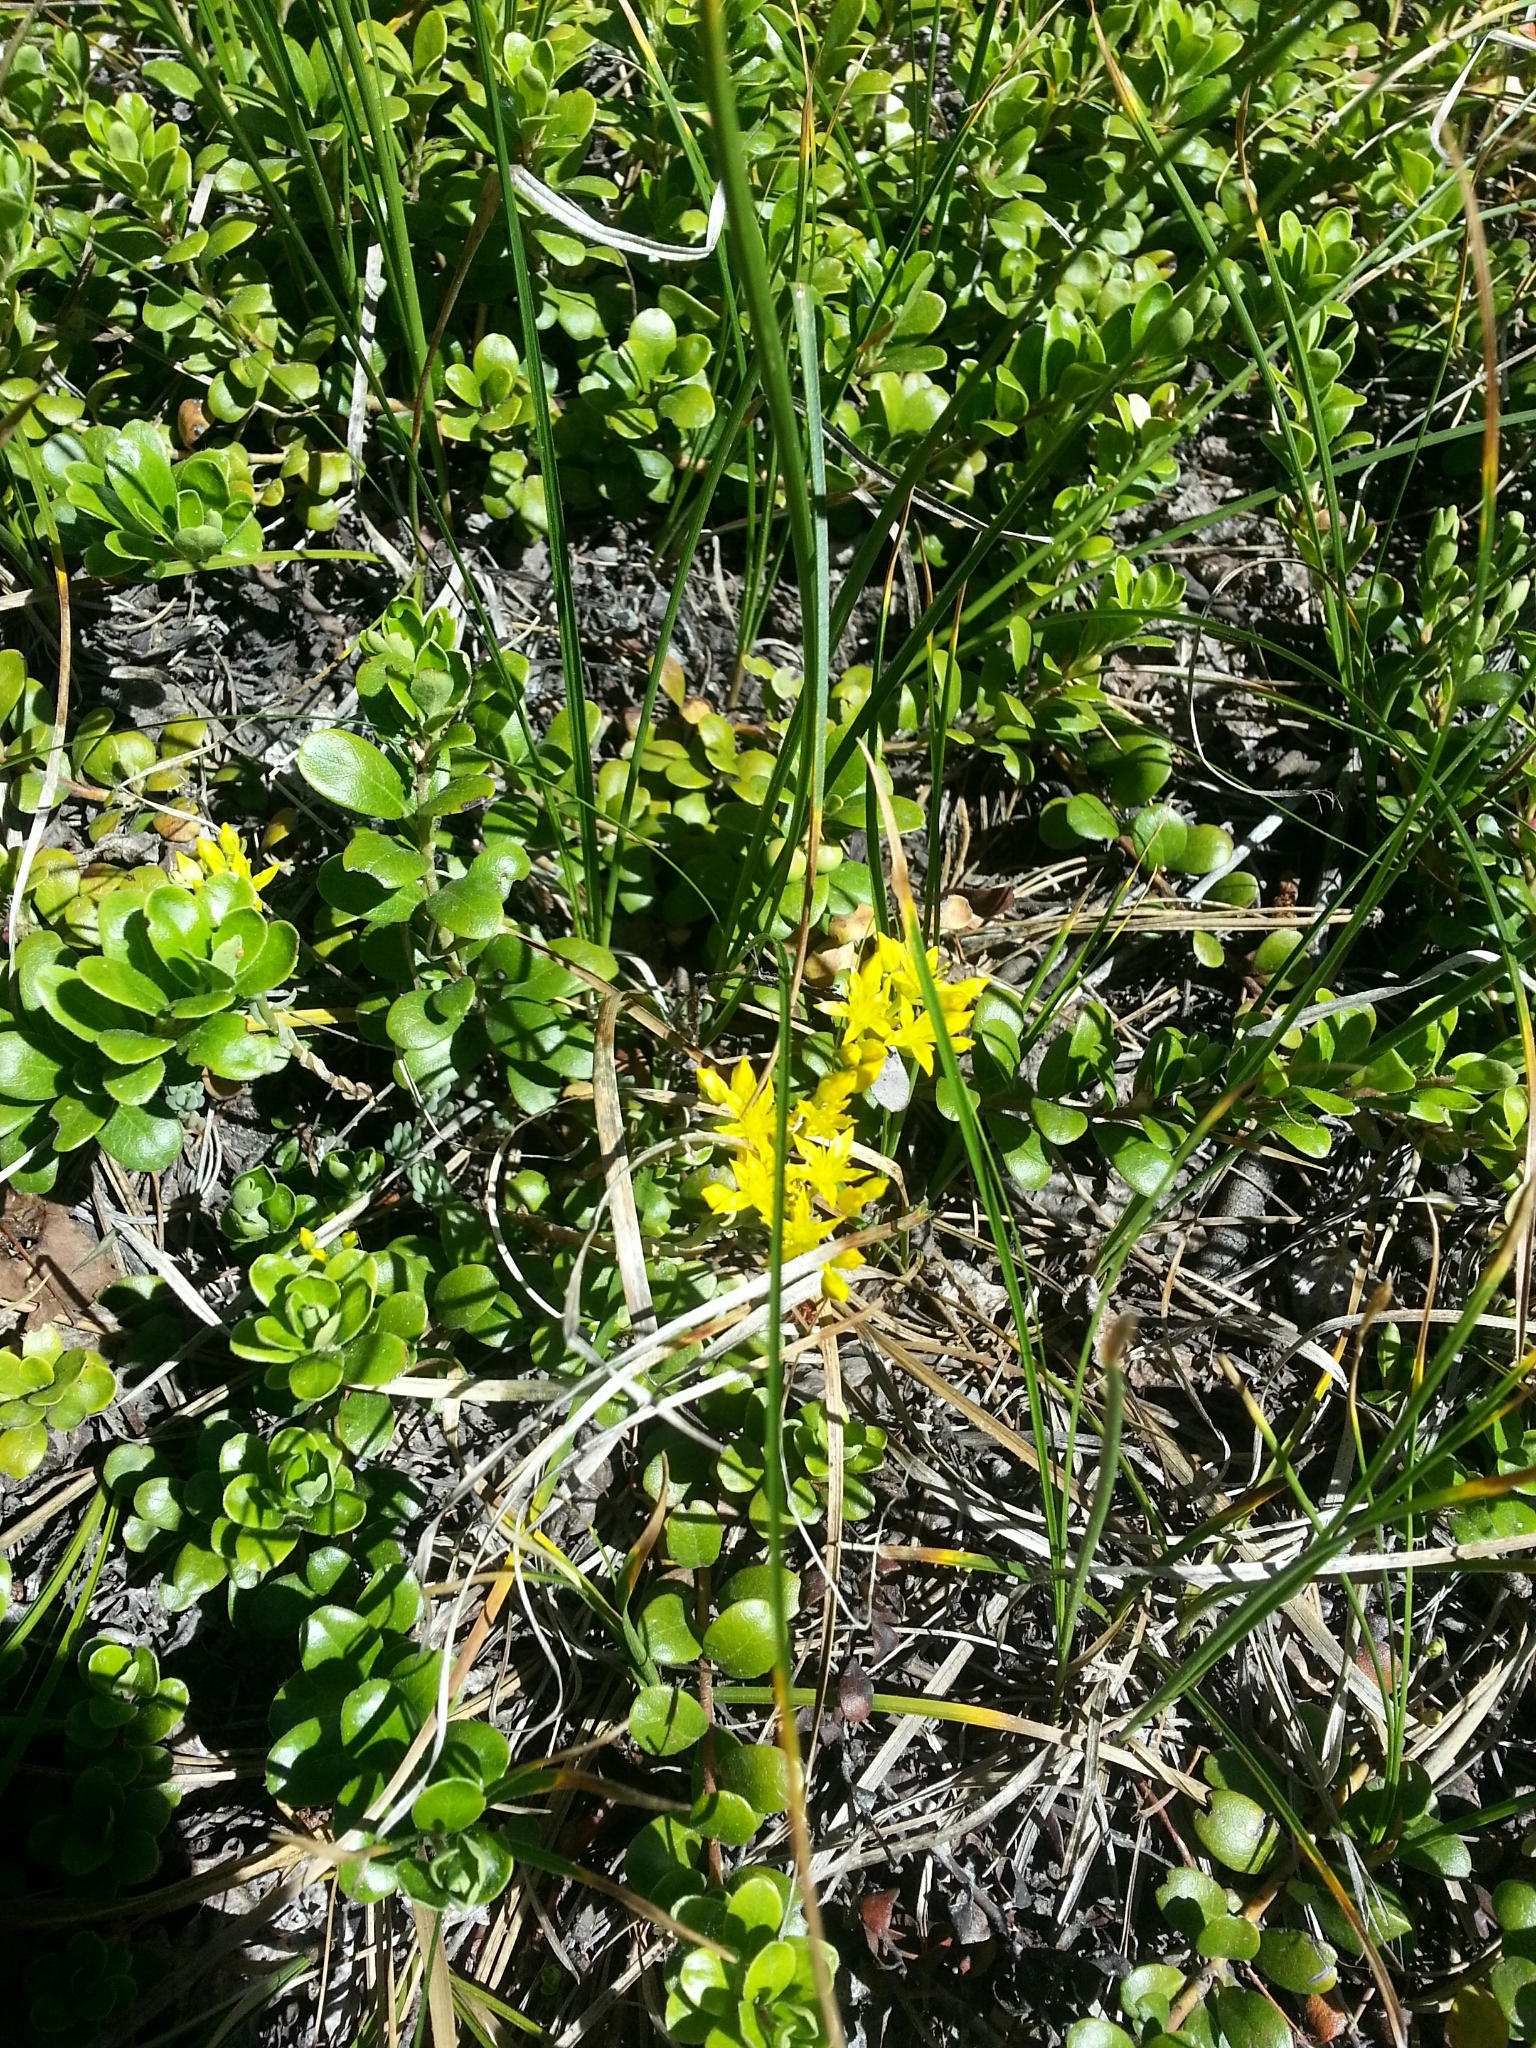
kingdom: Plantae
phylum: Tracheophyta
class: Magnoliopsida
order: Saxifragales
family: Crassulaceae
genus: Sedum
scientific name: Sedum lanceolatum
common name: Common stonecrop
